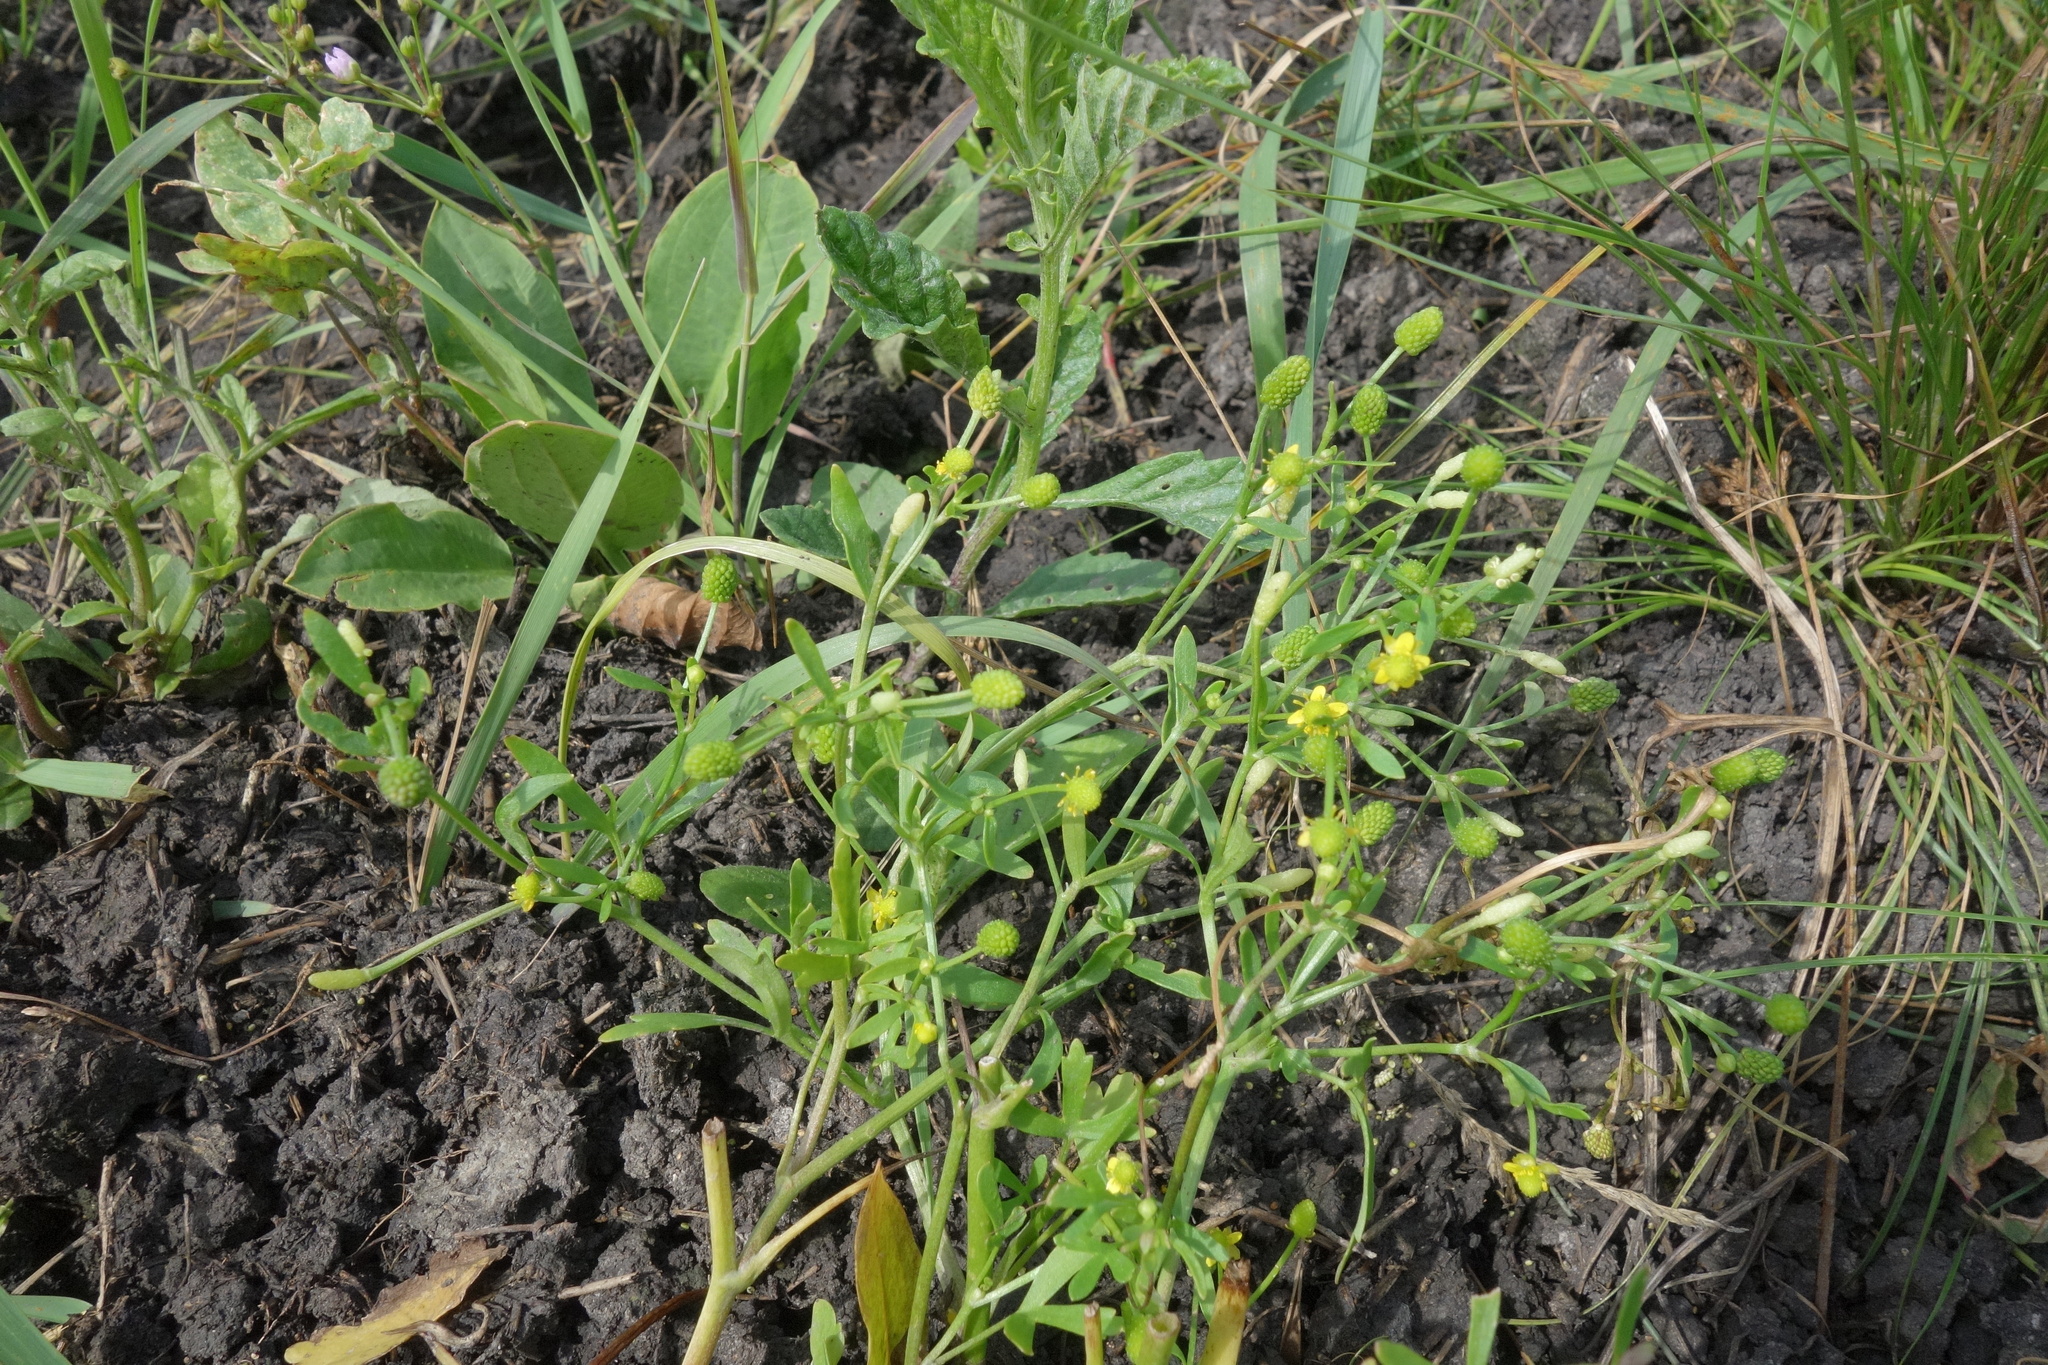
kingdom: Plantae
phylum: Tracheophyta
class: Magnoliopsida
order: Ranunculales
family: Ranunculaceae
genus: Ranunculus
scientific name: Ranunculus sceleratus
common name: Celery-leaved buttercup
